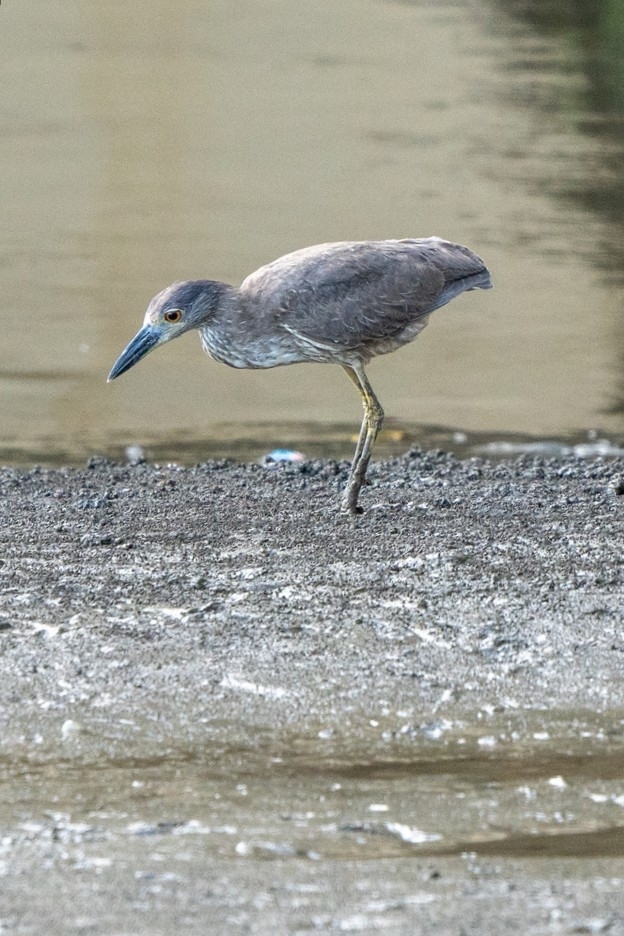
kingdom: Animalia
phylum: Chordata
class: Aves
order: Pelecaniformes
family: Ardeidae
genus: Nyctanassa
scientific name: Nyctanassa violacea
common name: Yellow-crowned night heron
